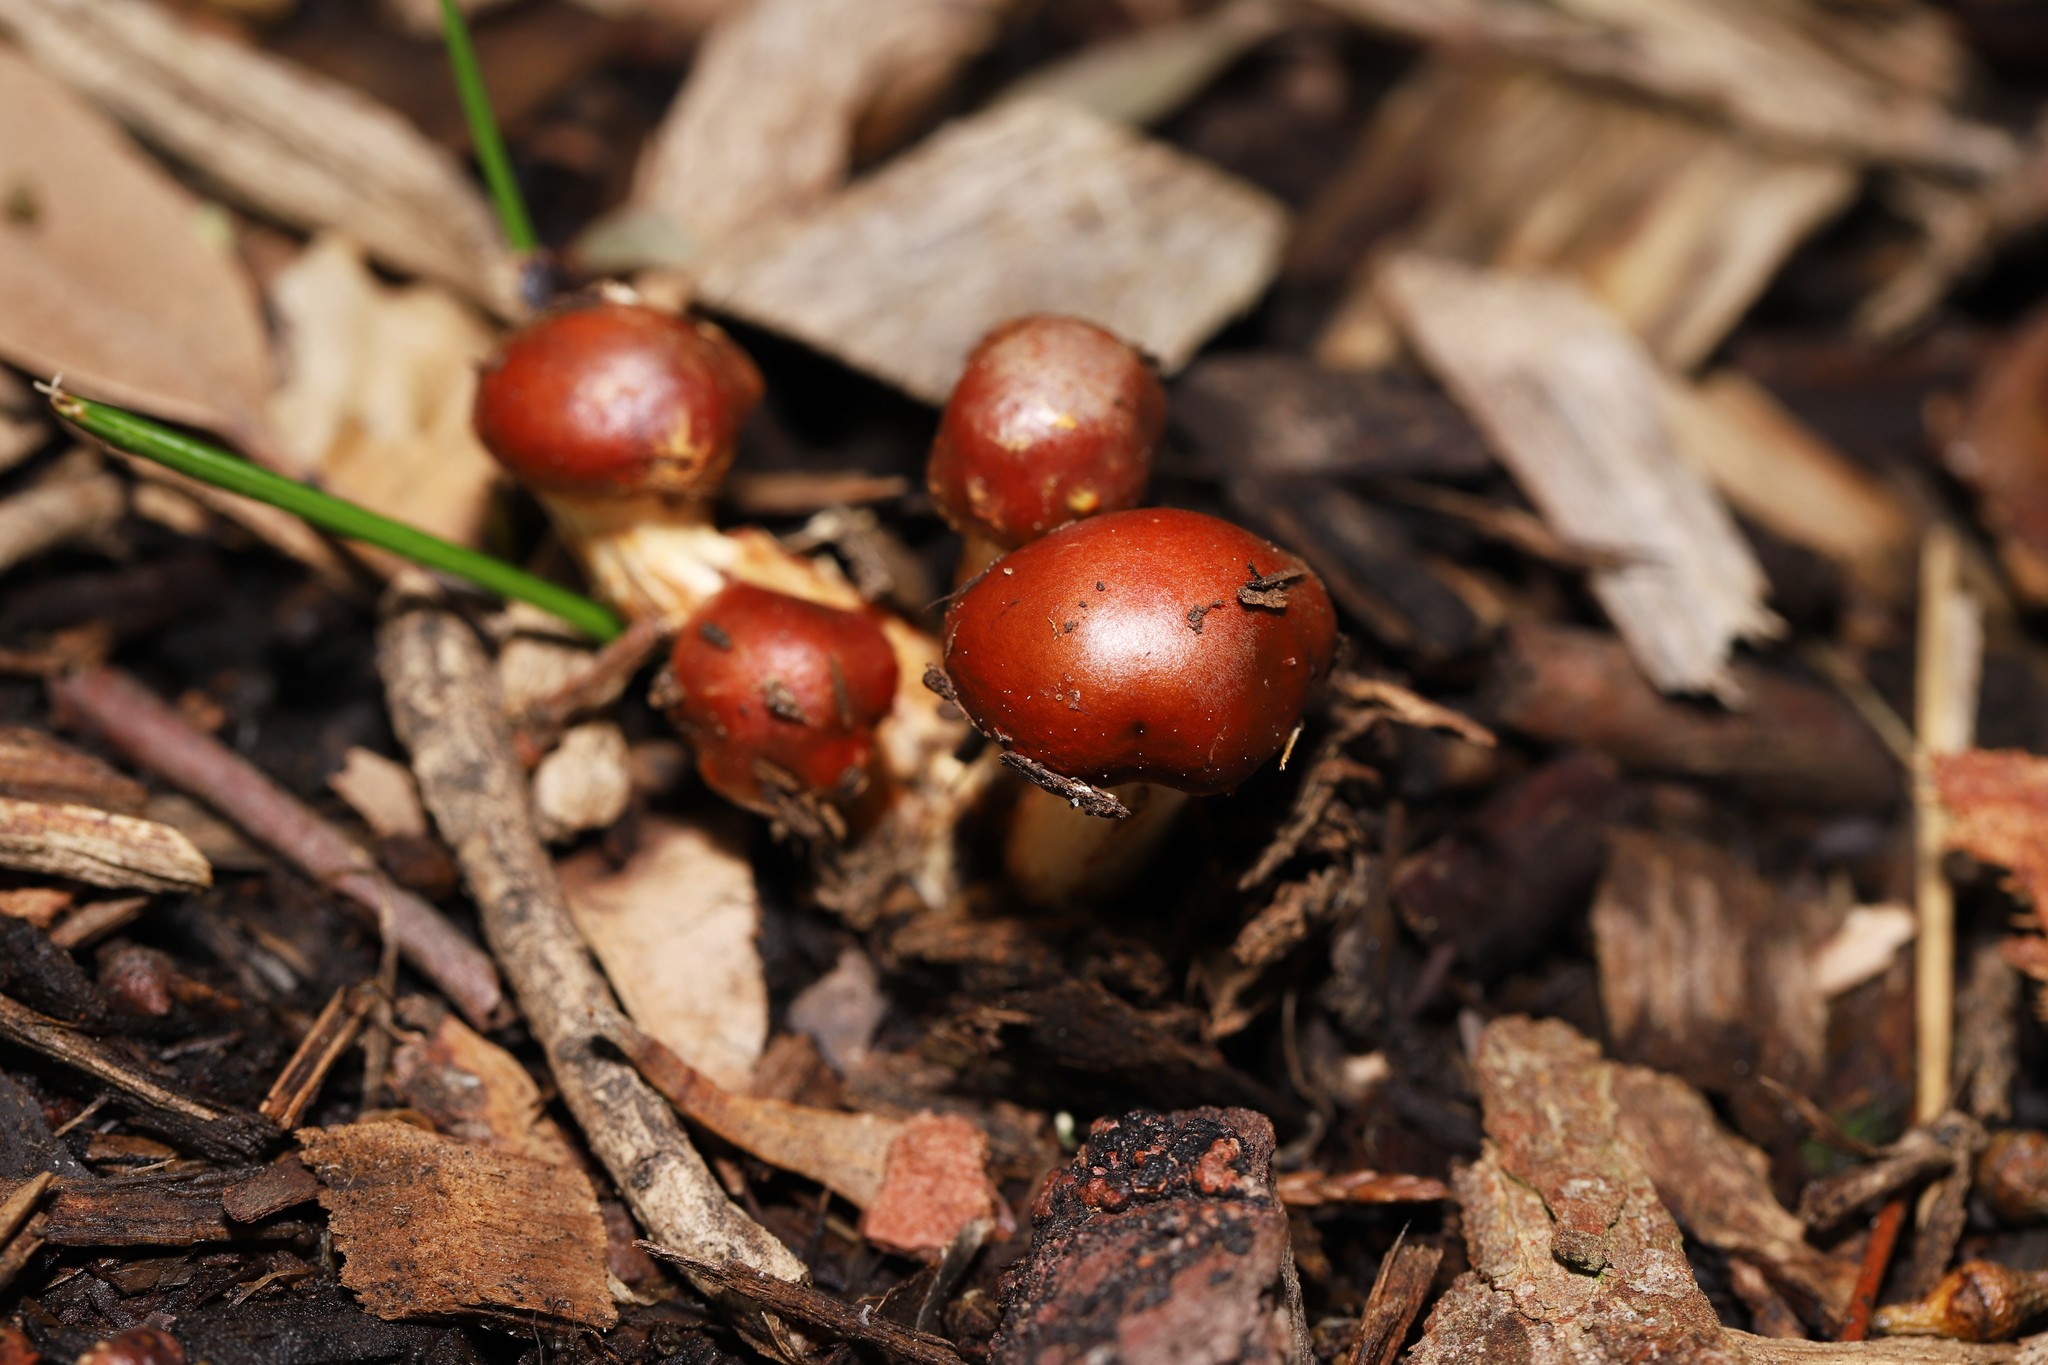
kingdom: Fungi
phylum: Basidiomycota
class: Agaricomycetes
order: Agaricales
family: Strophariaceae
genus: Leratiomyces
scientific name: Leratiomyces ceres
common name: Redlead roundhead
